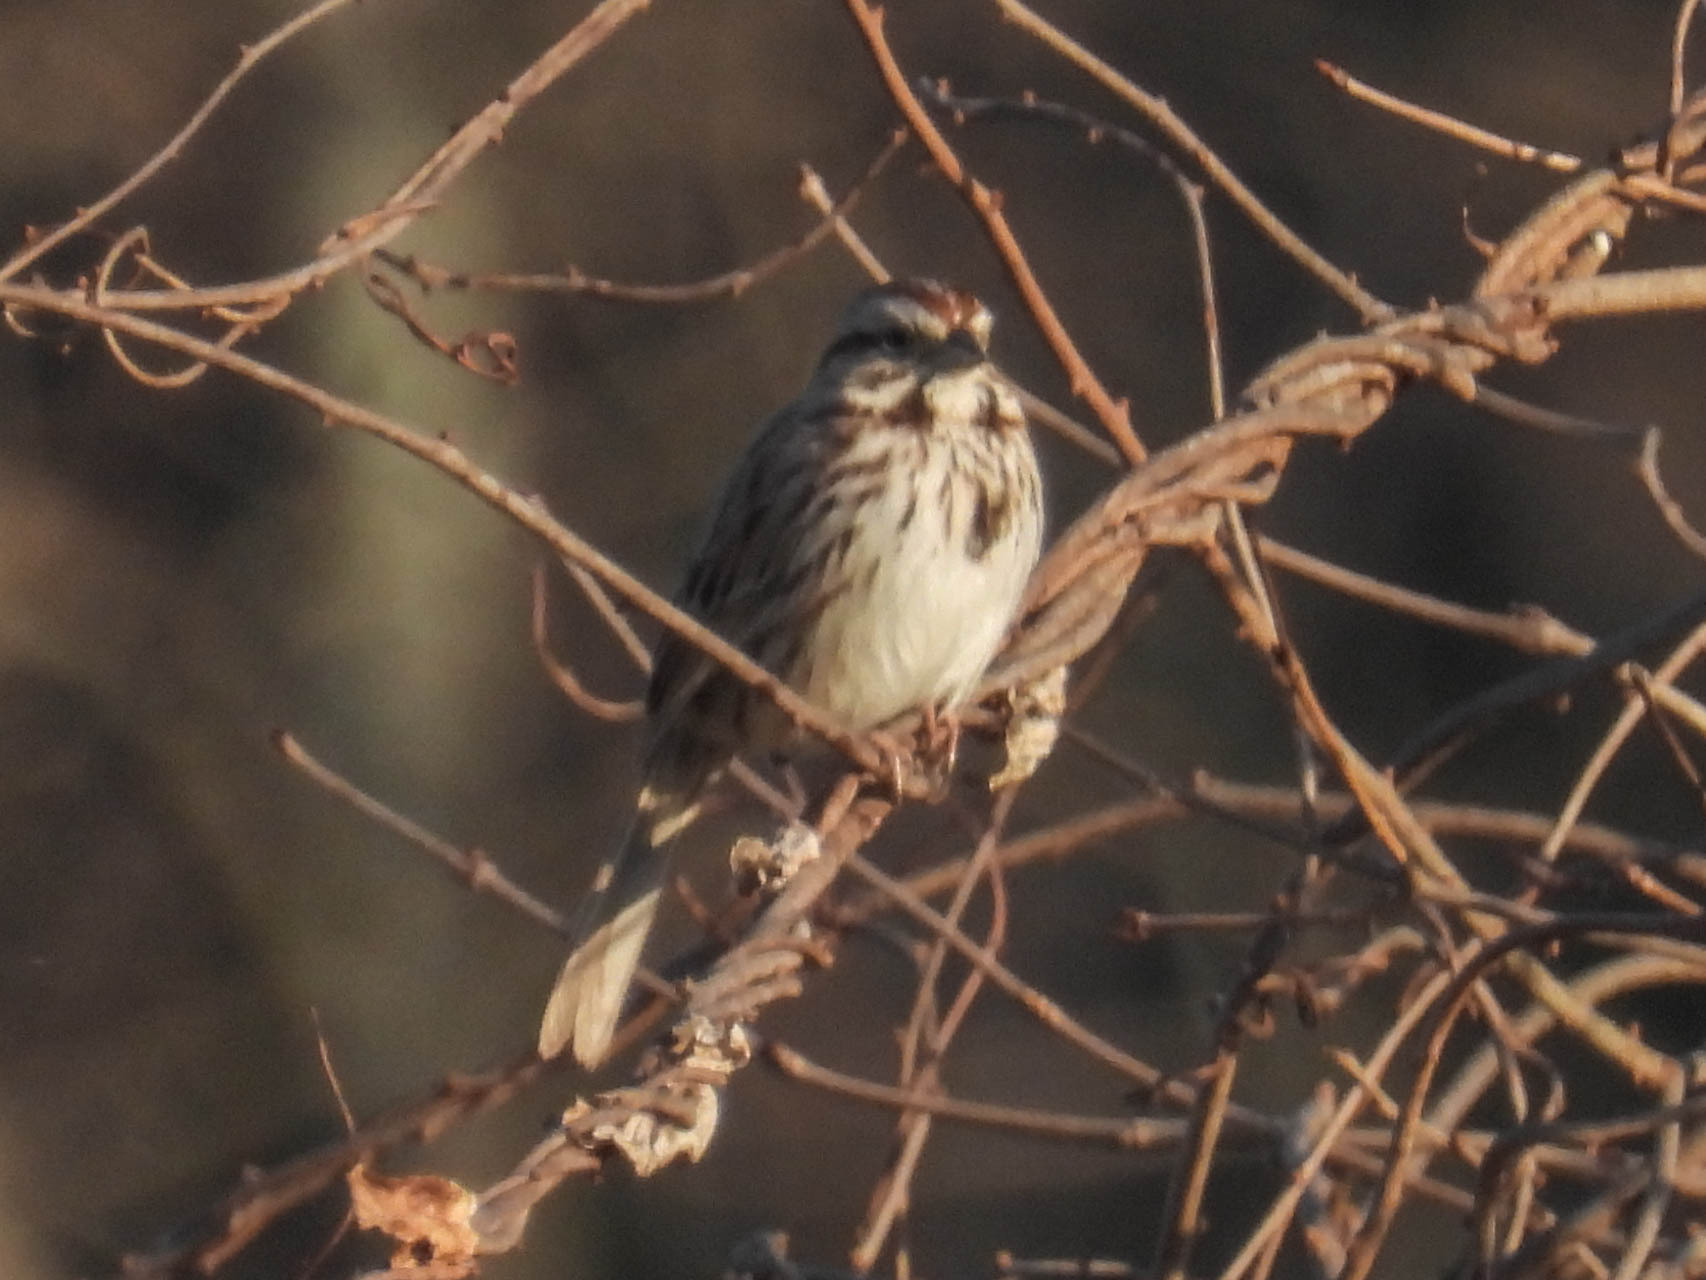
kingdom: Animalia
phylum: Chordata
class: Aves
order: Passeriformes
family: Passerellidae
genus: Melospiza
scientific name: Melospiza melodia
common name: Song sparrow
